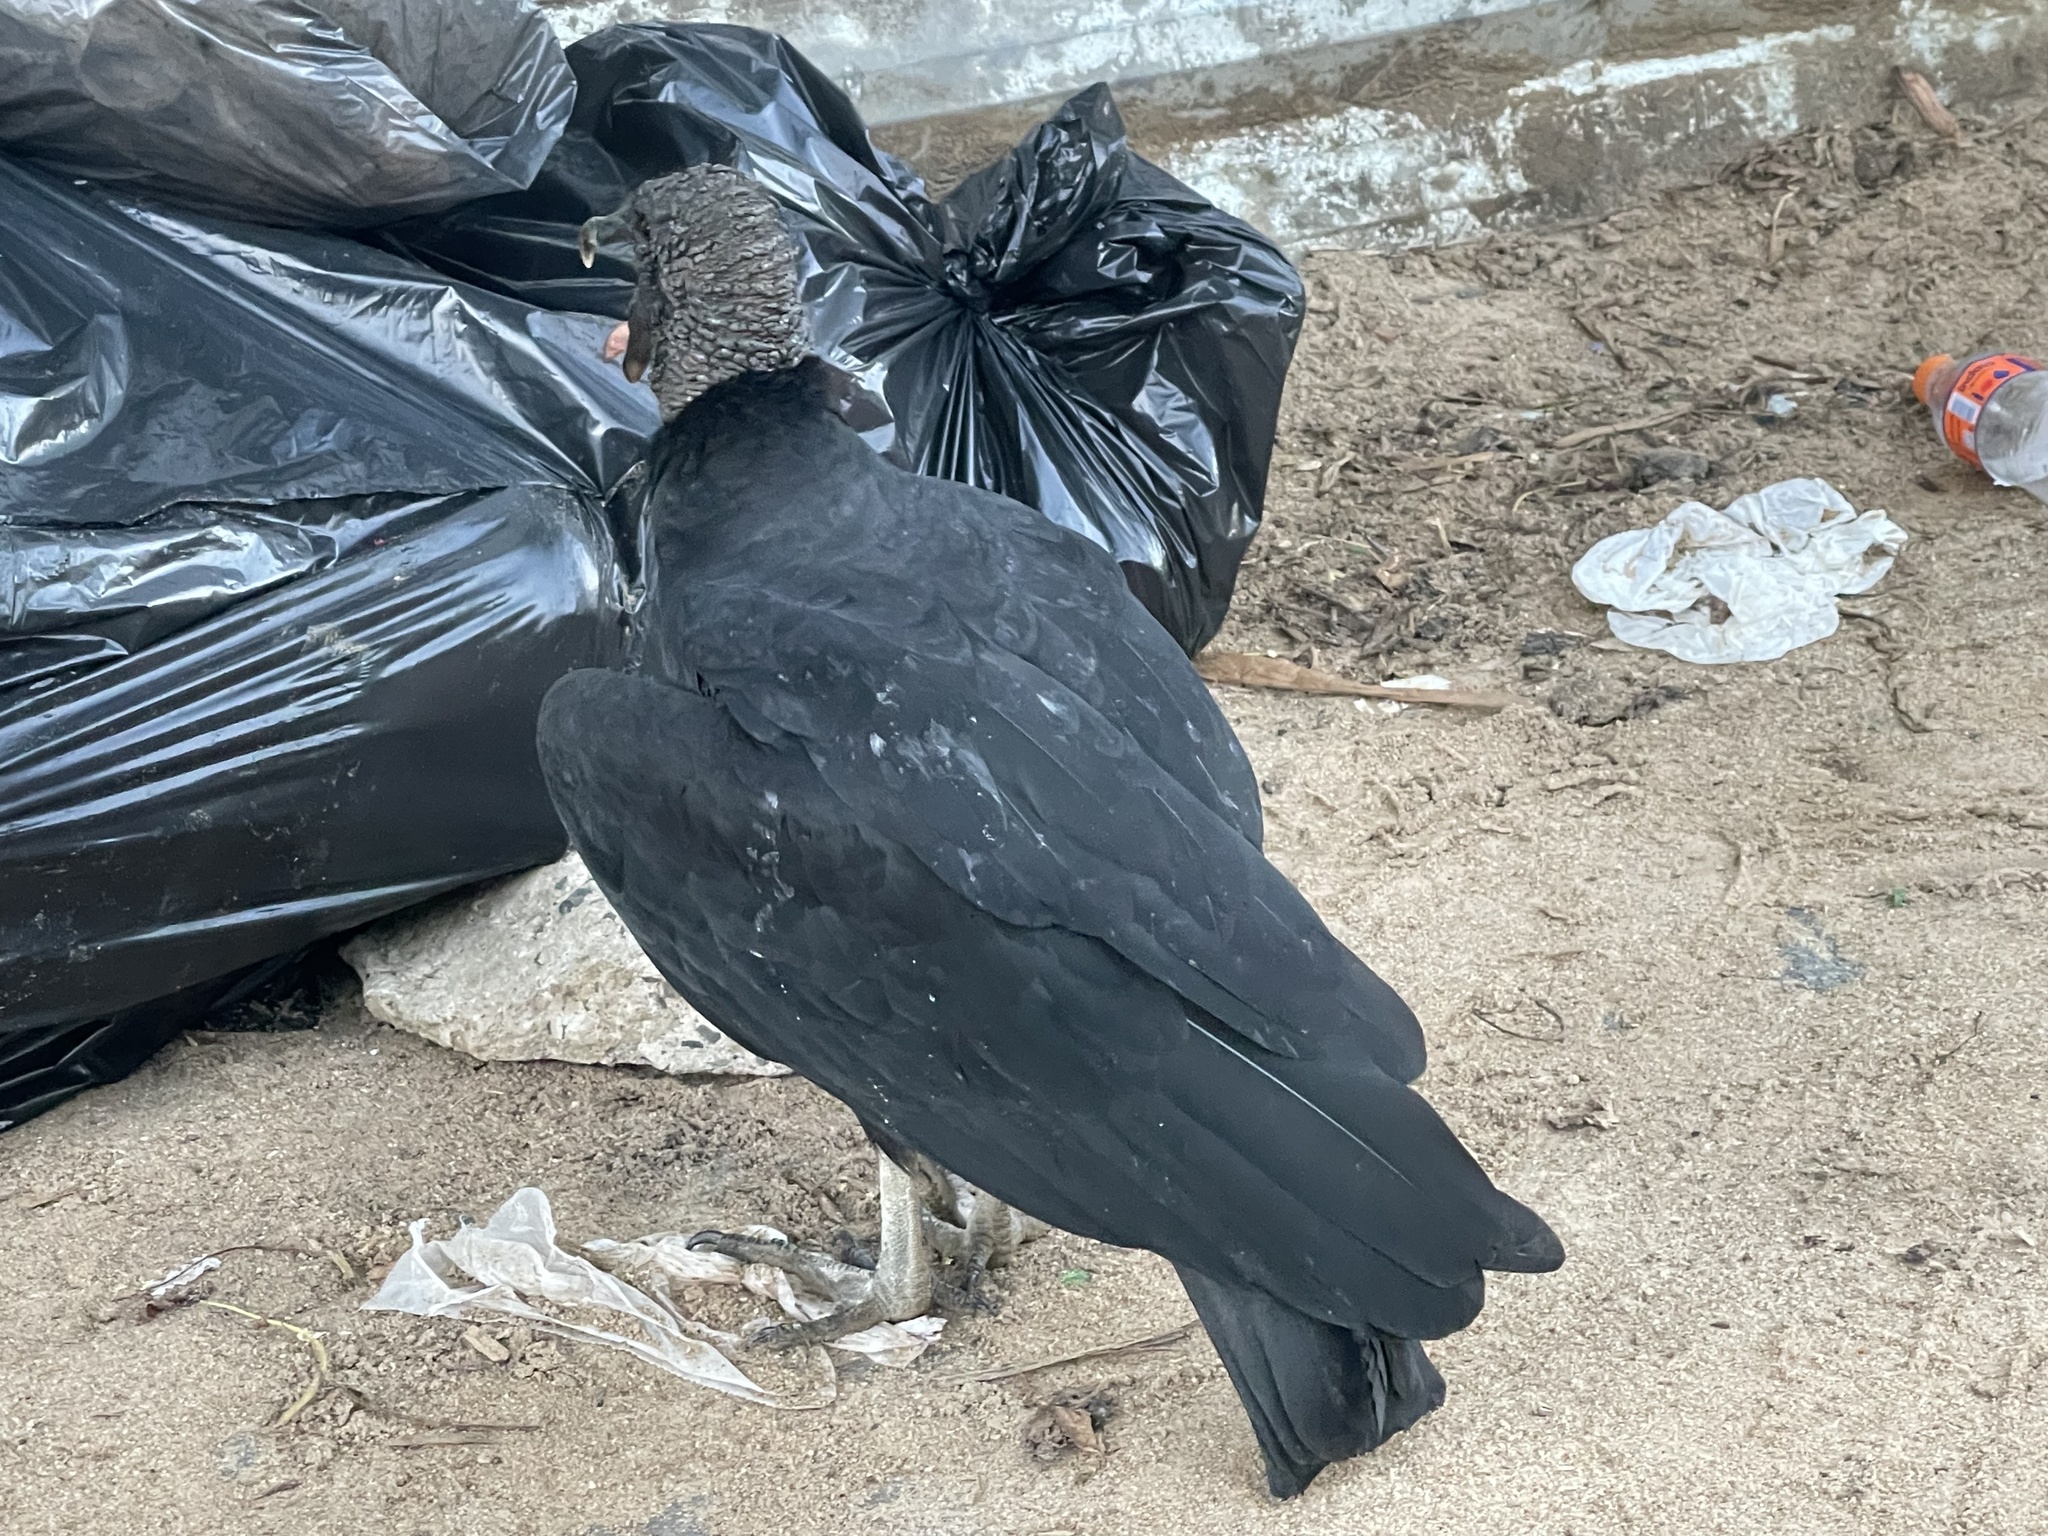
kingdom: Animalia
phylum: Chordata
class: Aves
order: Accipitriformes
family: Cathartidae
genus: Coragyps
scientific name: Coragyps atratus
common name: Black vulture
